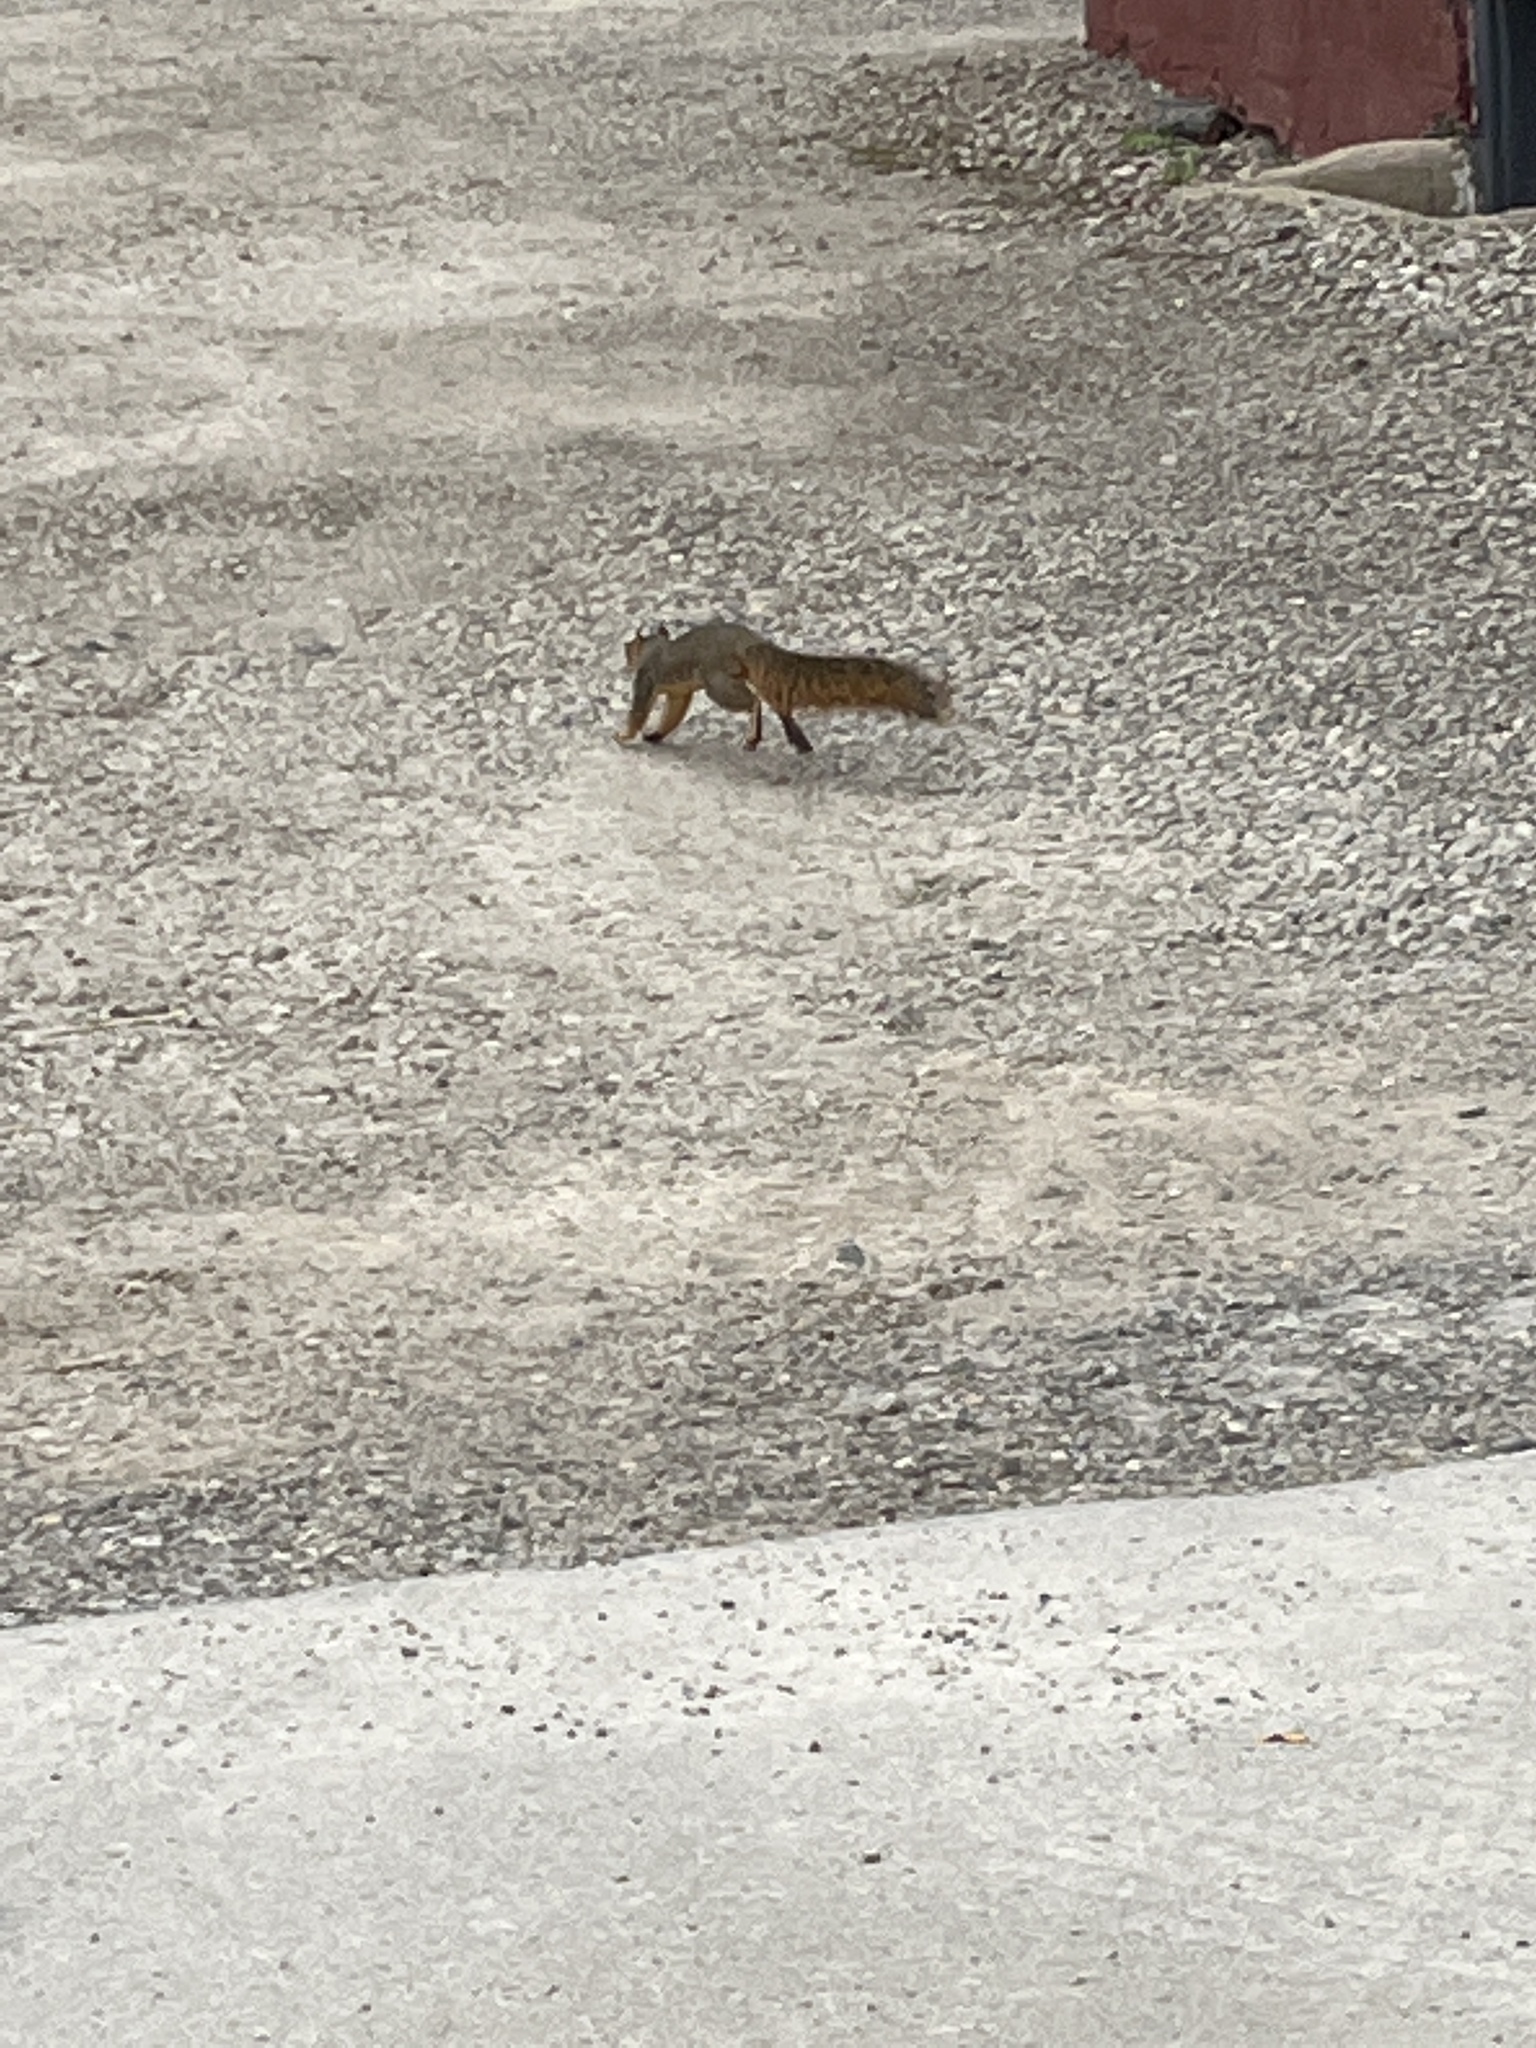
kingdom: Animalia
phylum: Chordata
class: Mammalia
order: Rodentia
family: Sciuridae
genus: Sciurus
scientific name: Sciurus niger
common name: Fox squirrel
